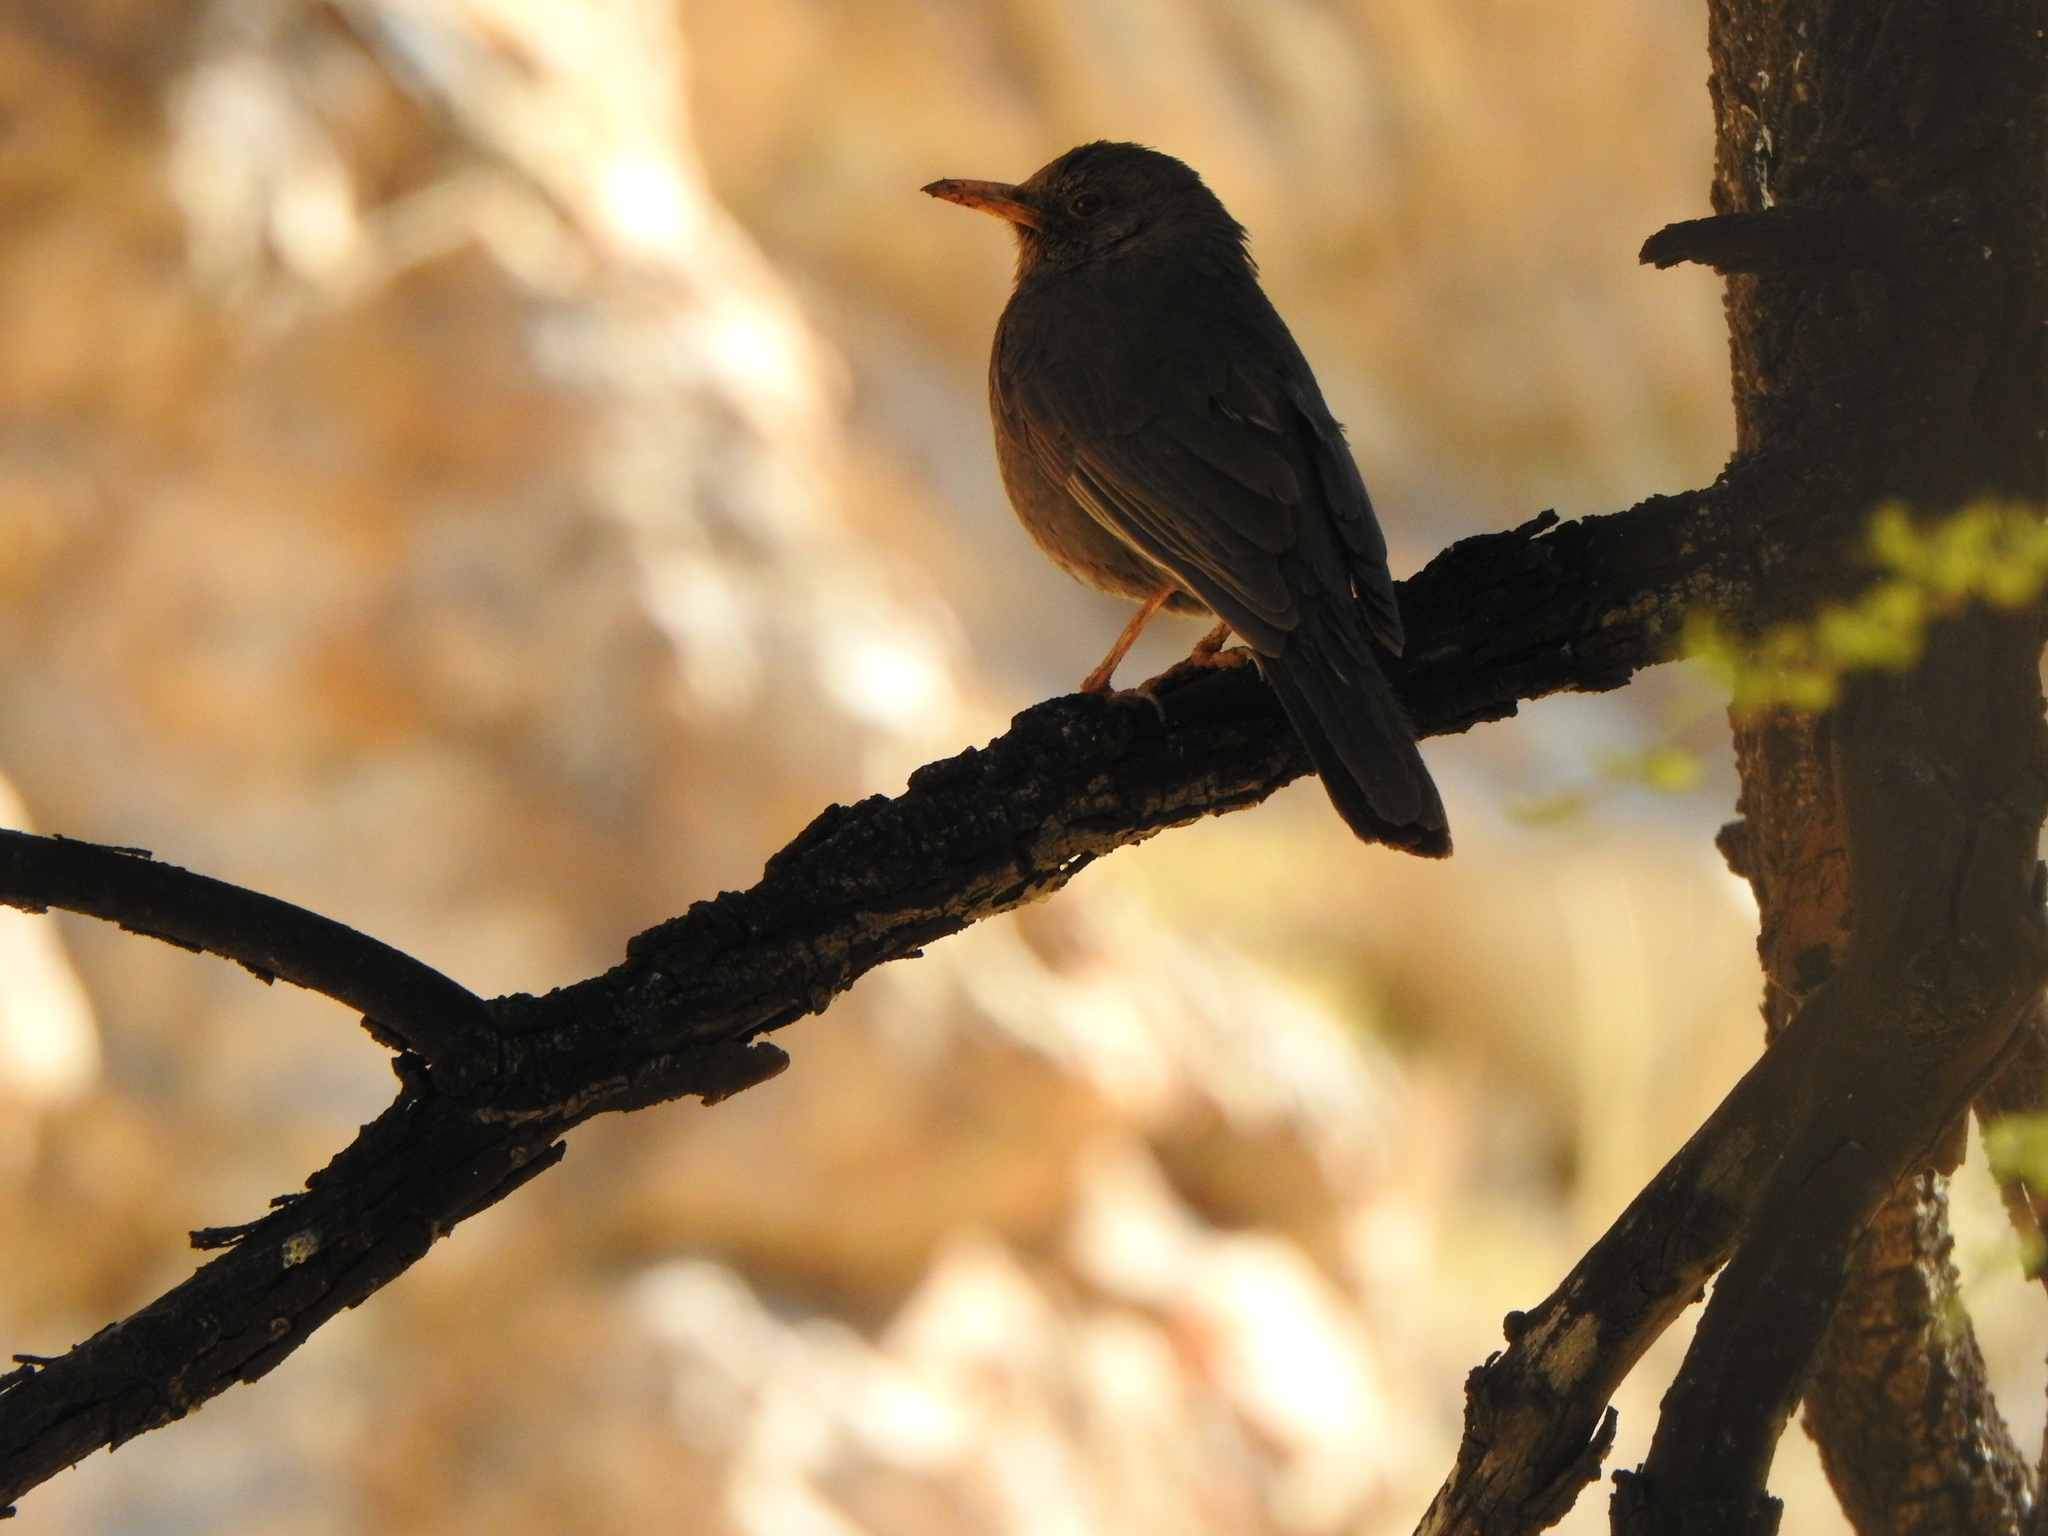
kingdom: Animalia
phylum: Chordata
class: Aves
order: Passeriformes
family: Turdidae
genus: Turdus
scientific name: Turdus chiguanco
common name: Chiguanco thrush
